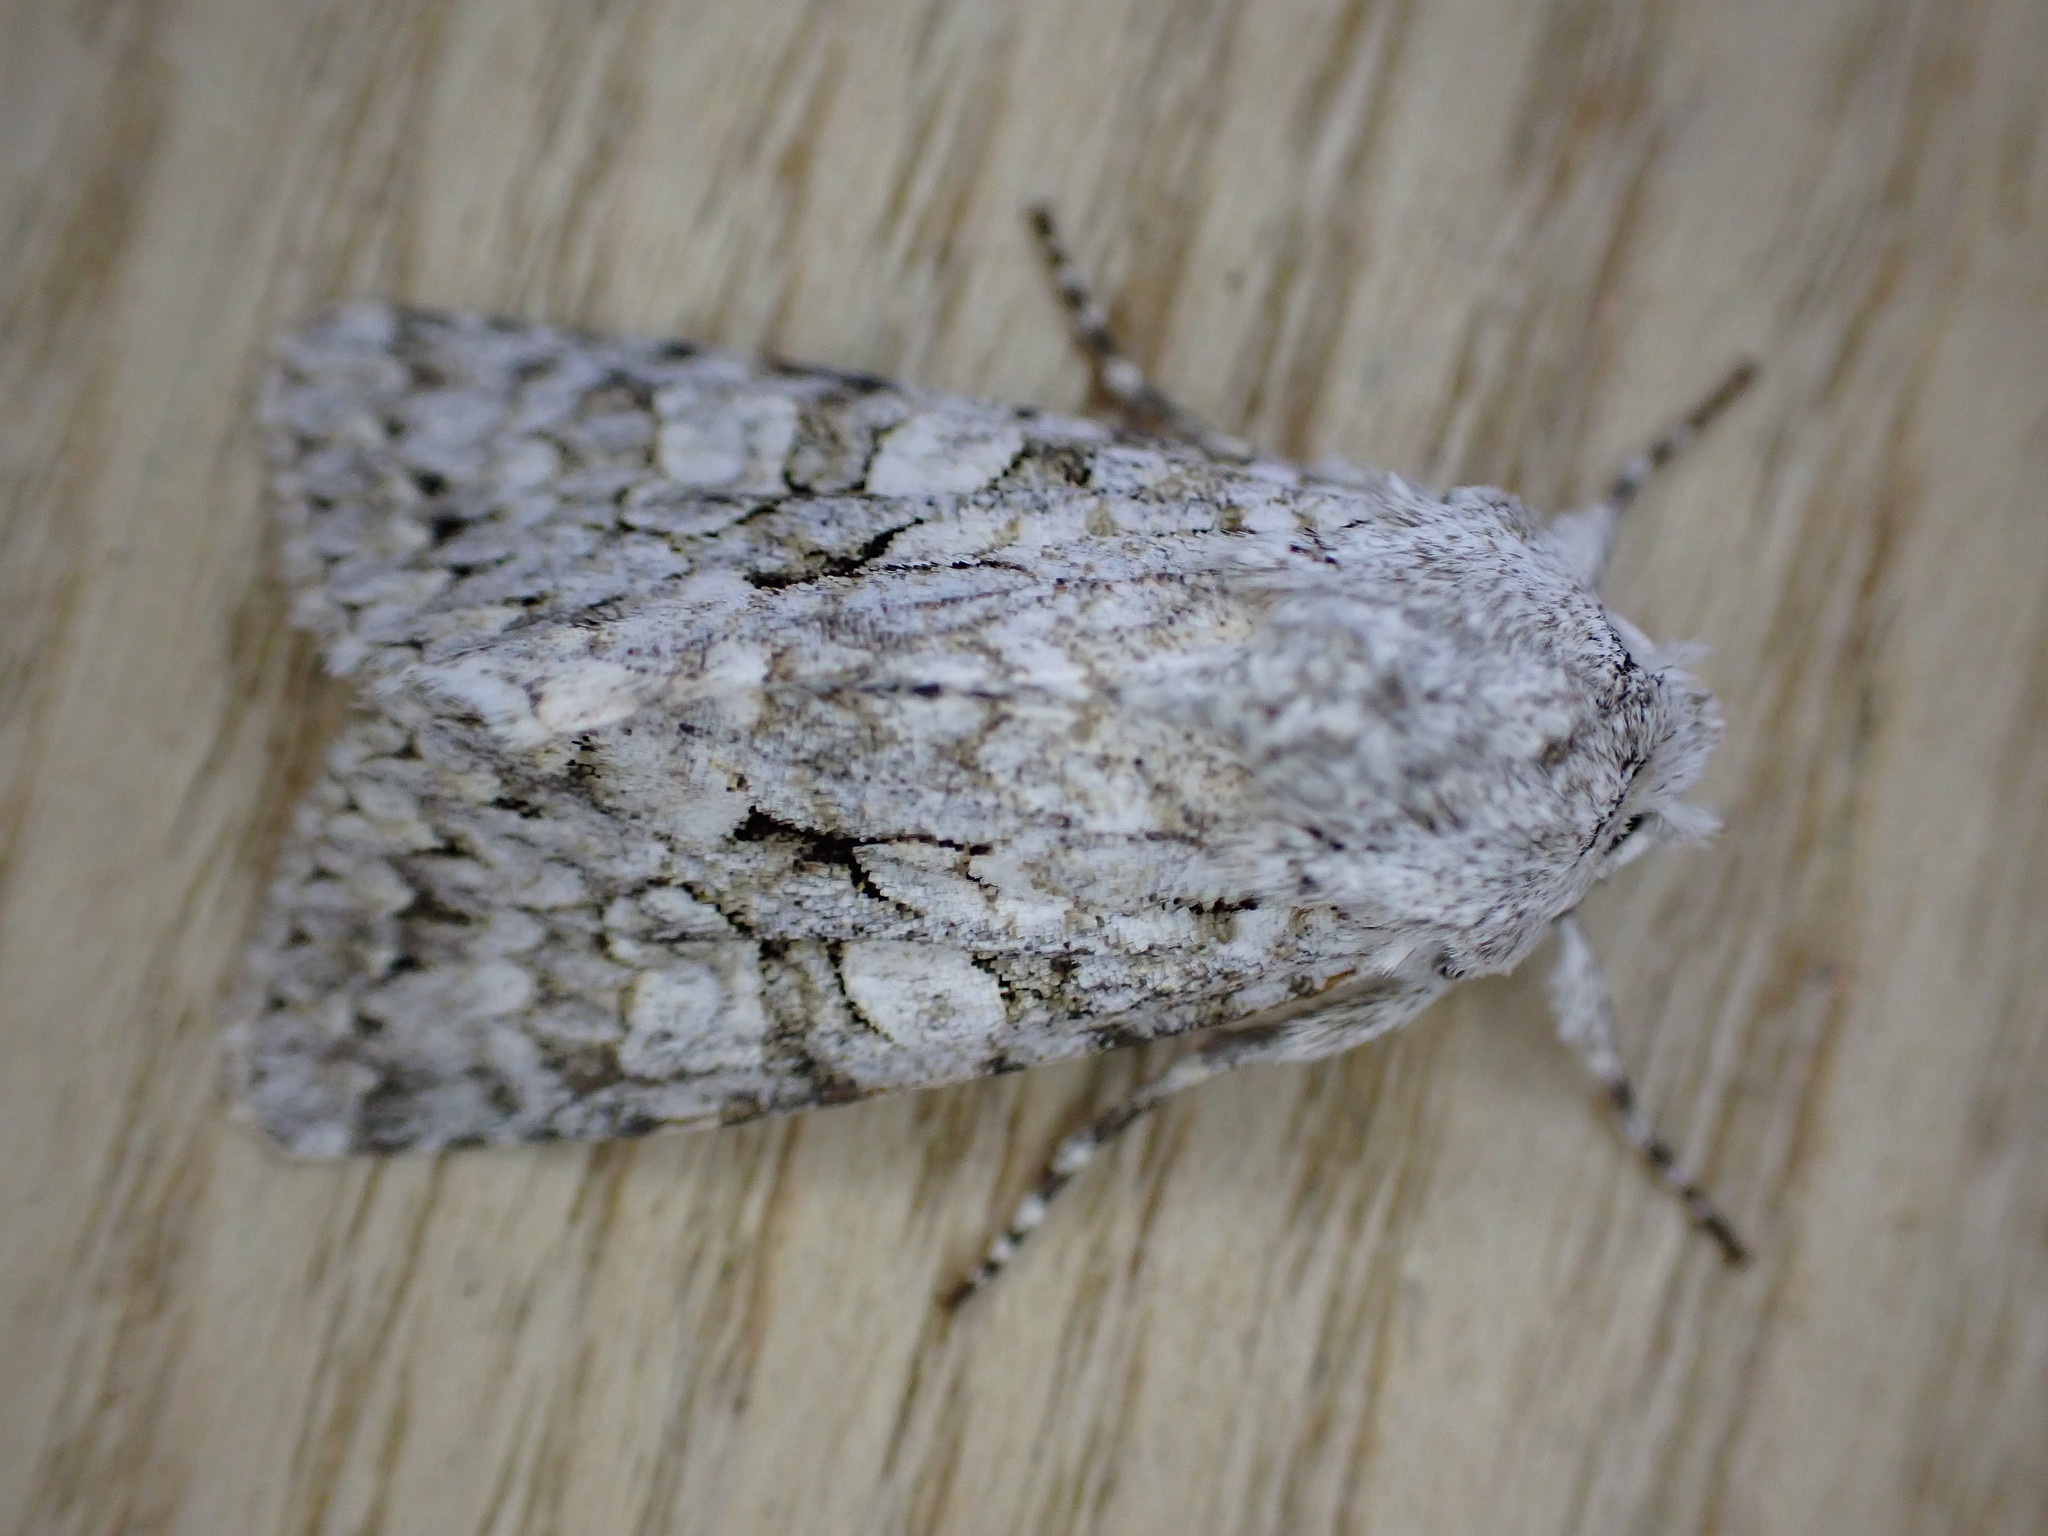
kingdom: Animalia
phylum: Arthropoda
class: Insecta
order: Lepidoptera
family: Noctuidae
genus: Antitype
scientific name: Antitype chi
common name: Grey chi
